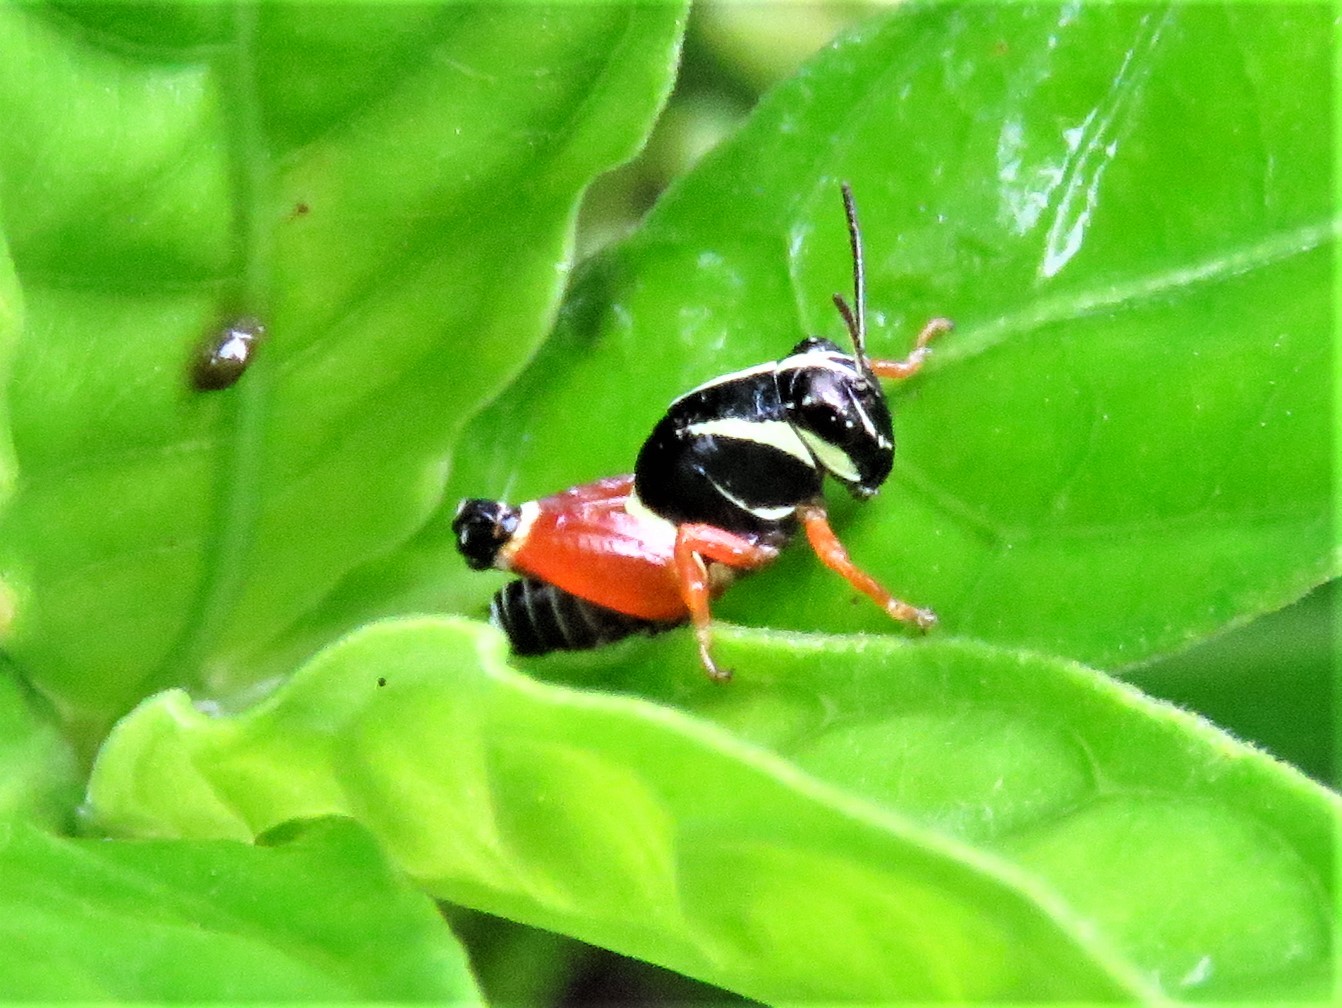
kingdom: Animalia
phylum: Arthropoda
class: Insecta
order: Orthoptera
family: Acrididae
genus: Aidemona
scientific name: Aidemona azteca
